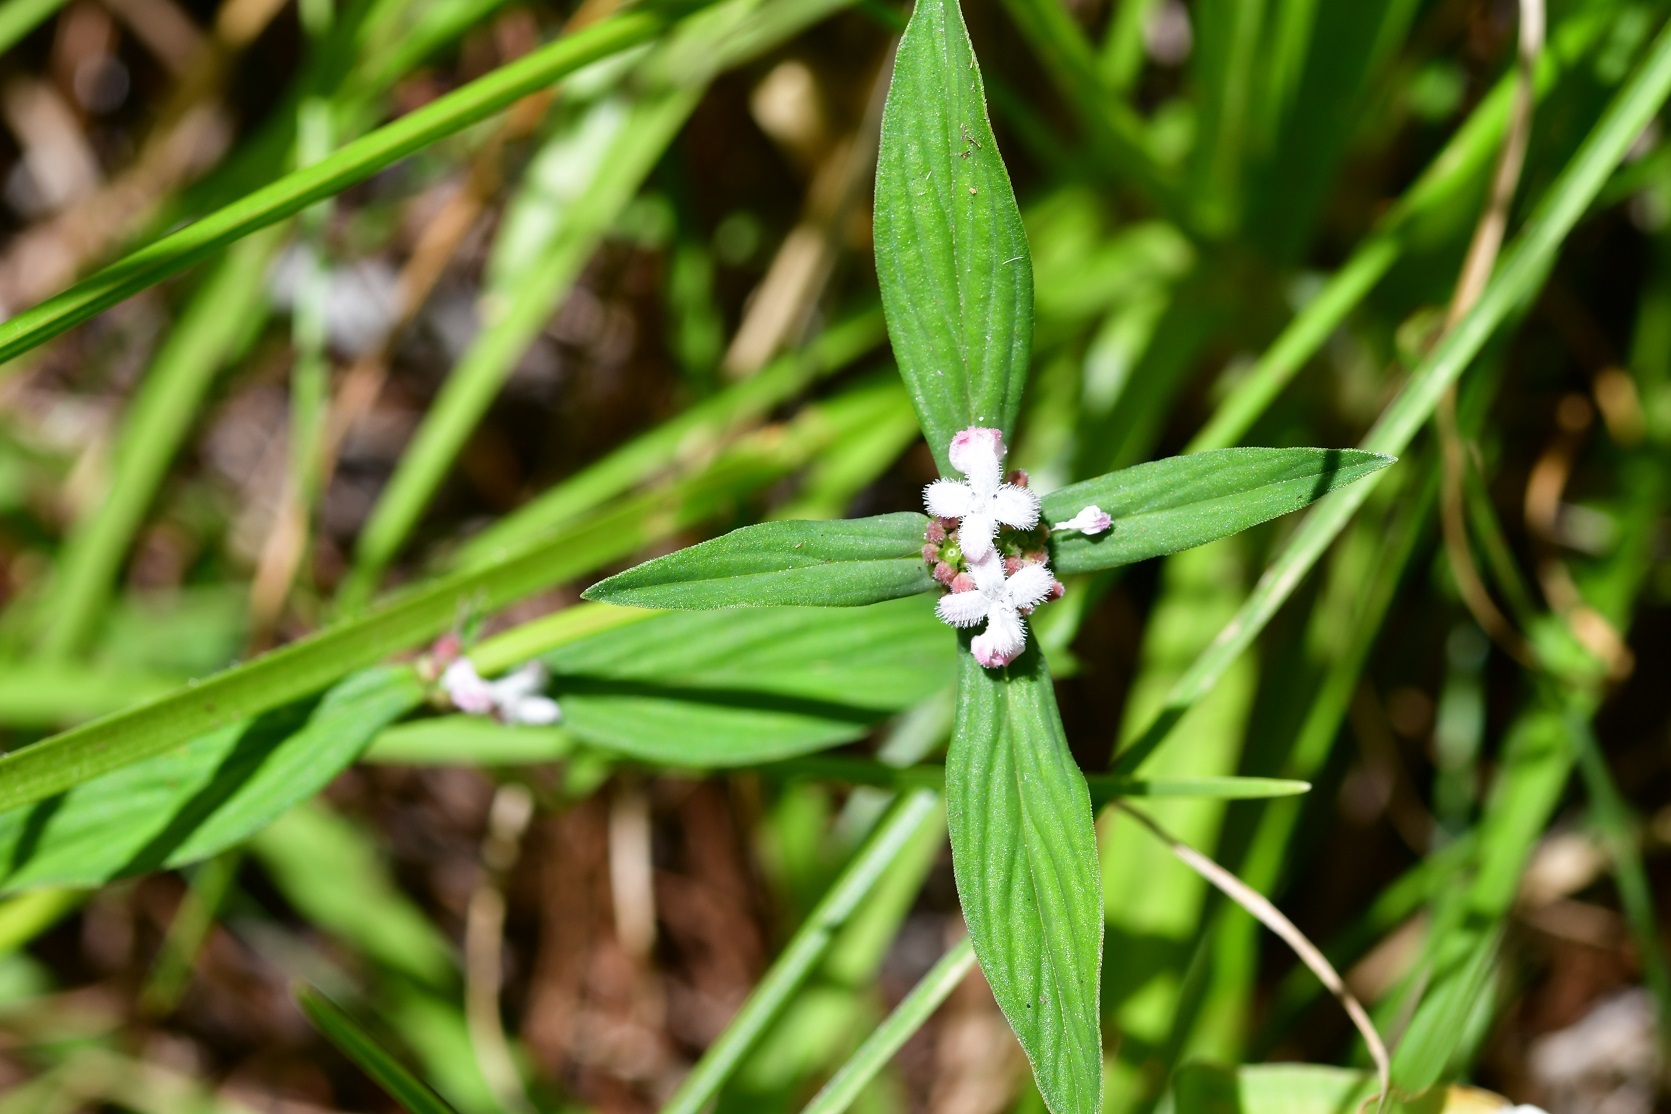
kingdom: Plantae
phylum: Tracheophyta
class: Magnoliopsida
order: Gentianales
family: Rubiaceae
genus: Spermacoce
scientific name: Spermacoce remota
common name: Woodland false buttonweed
